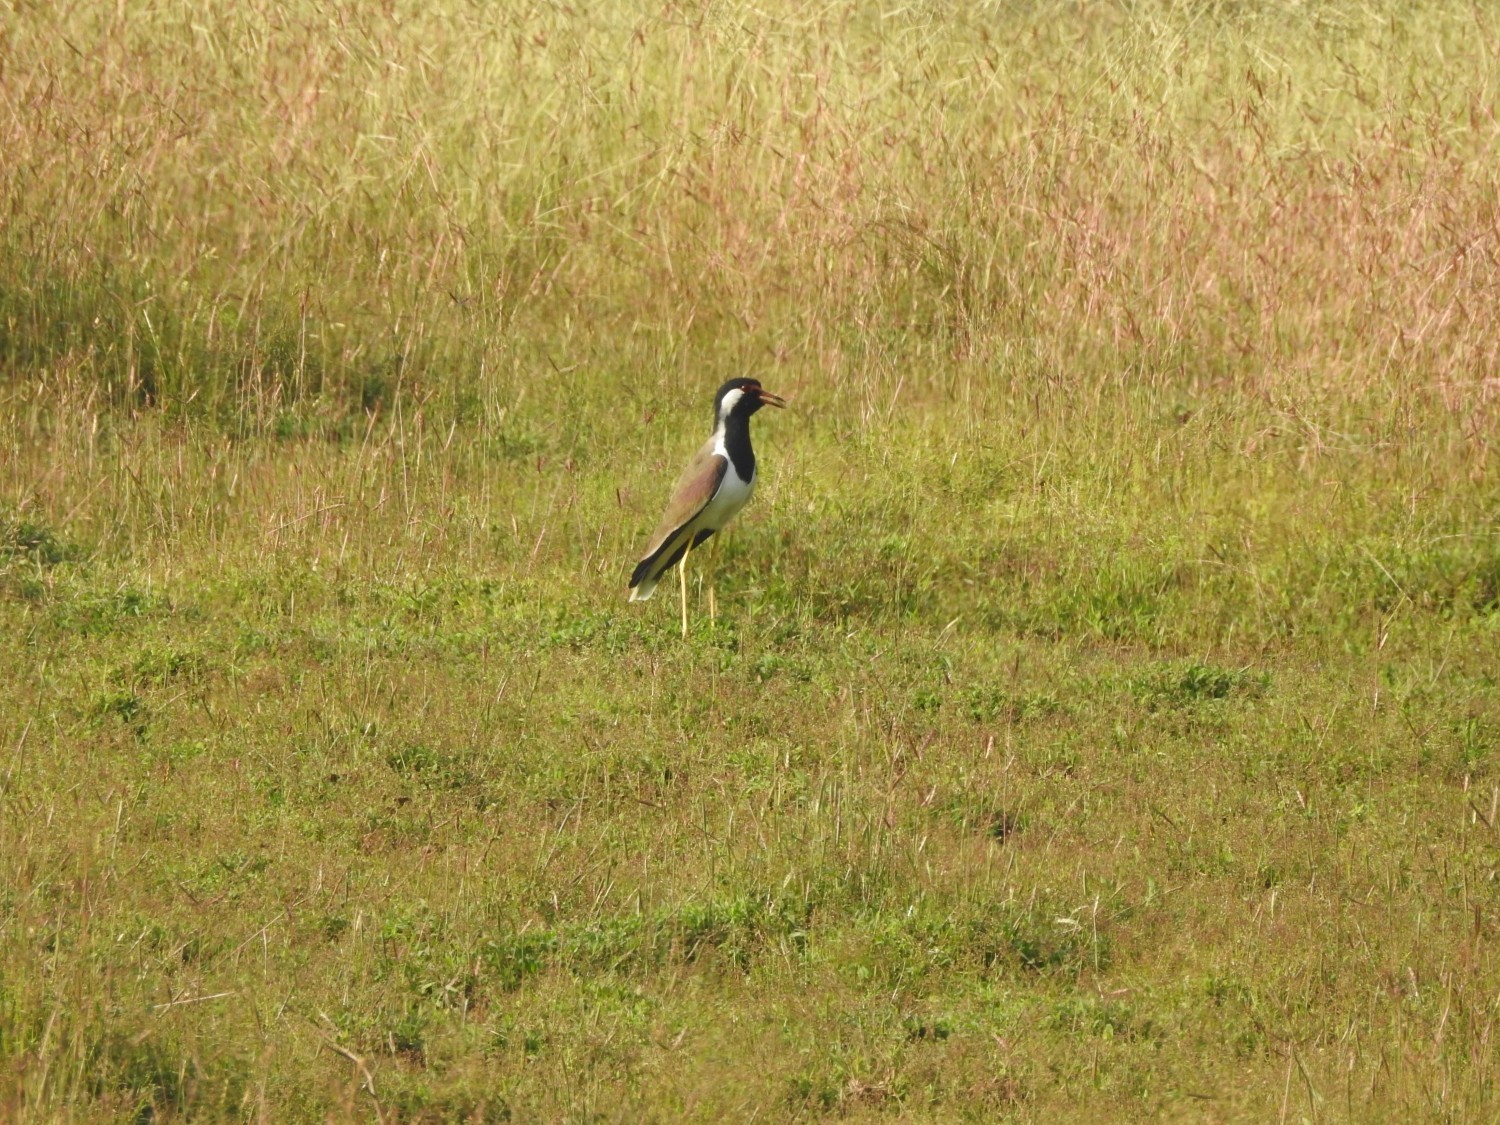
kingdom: Animalia
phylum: Chordata
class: Aves
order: Charadriiformes
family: Charadriidae
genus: Vanellus
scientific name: Vanellus indicus
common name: Red-wattled lapwing
